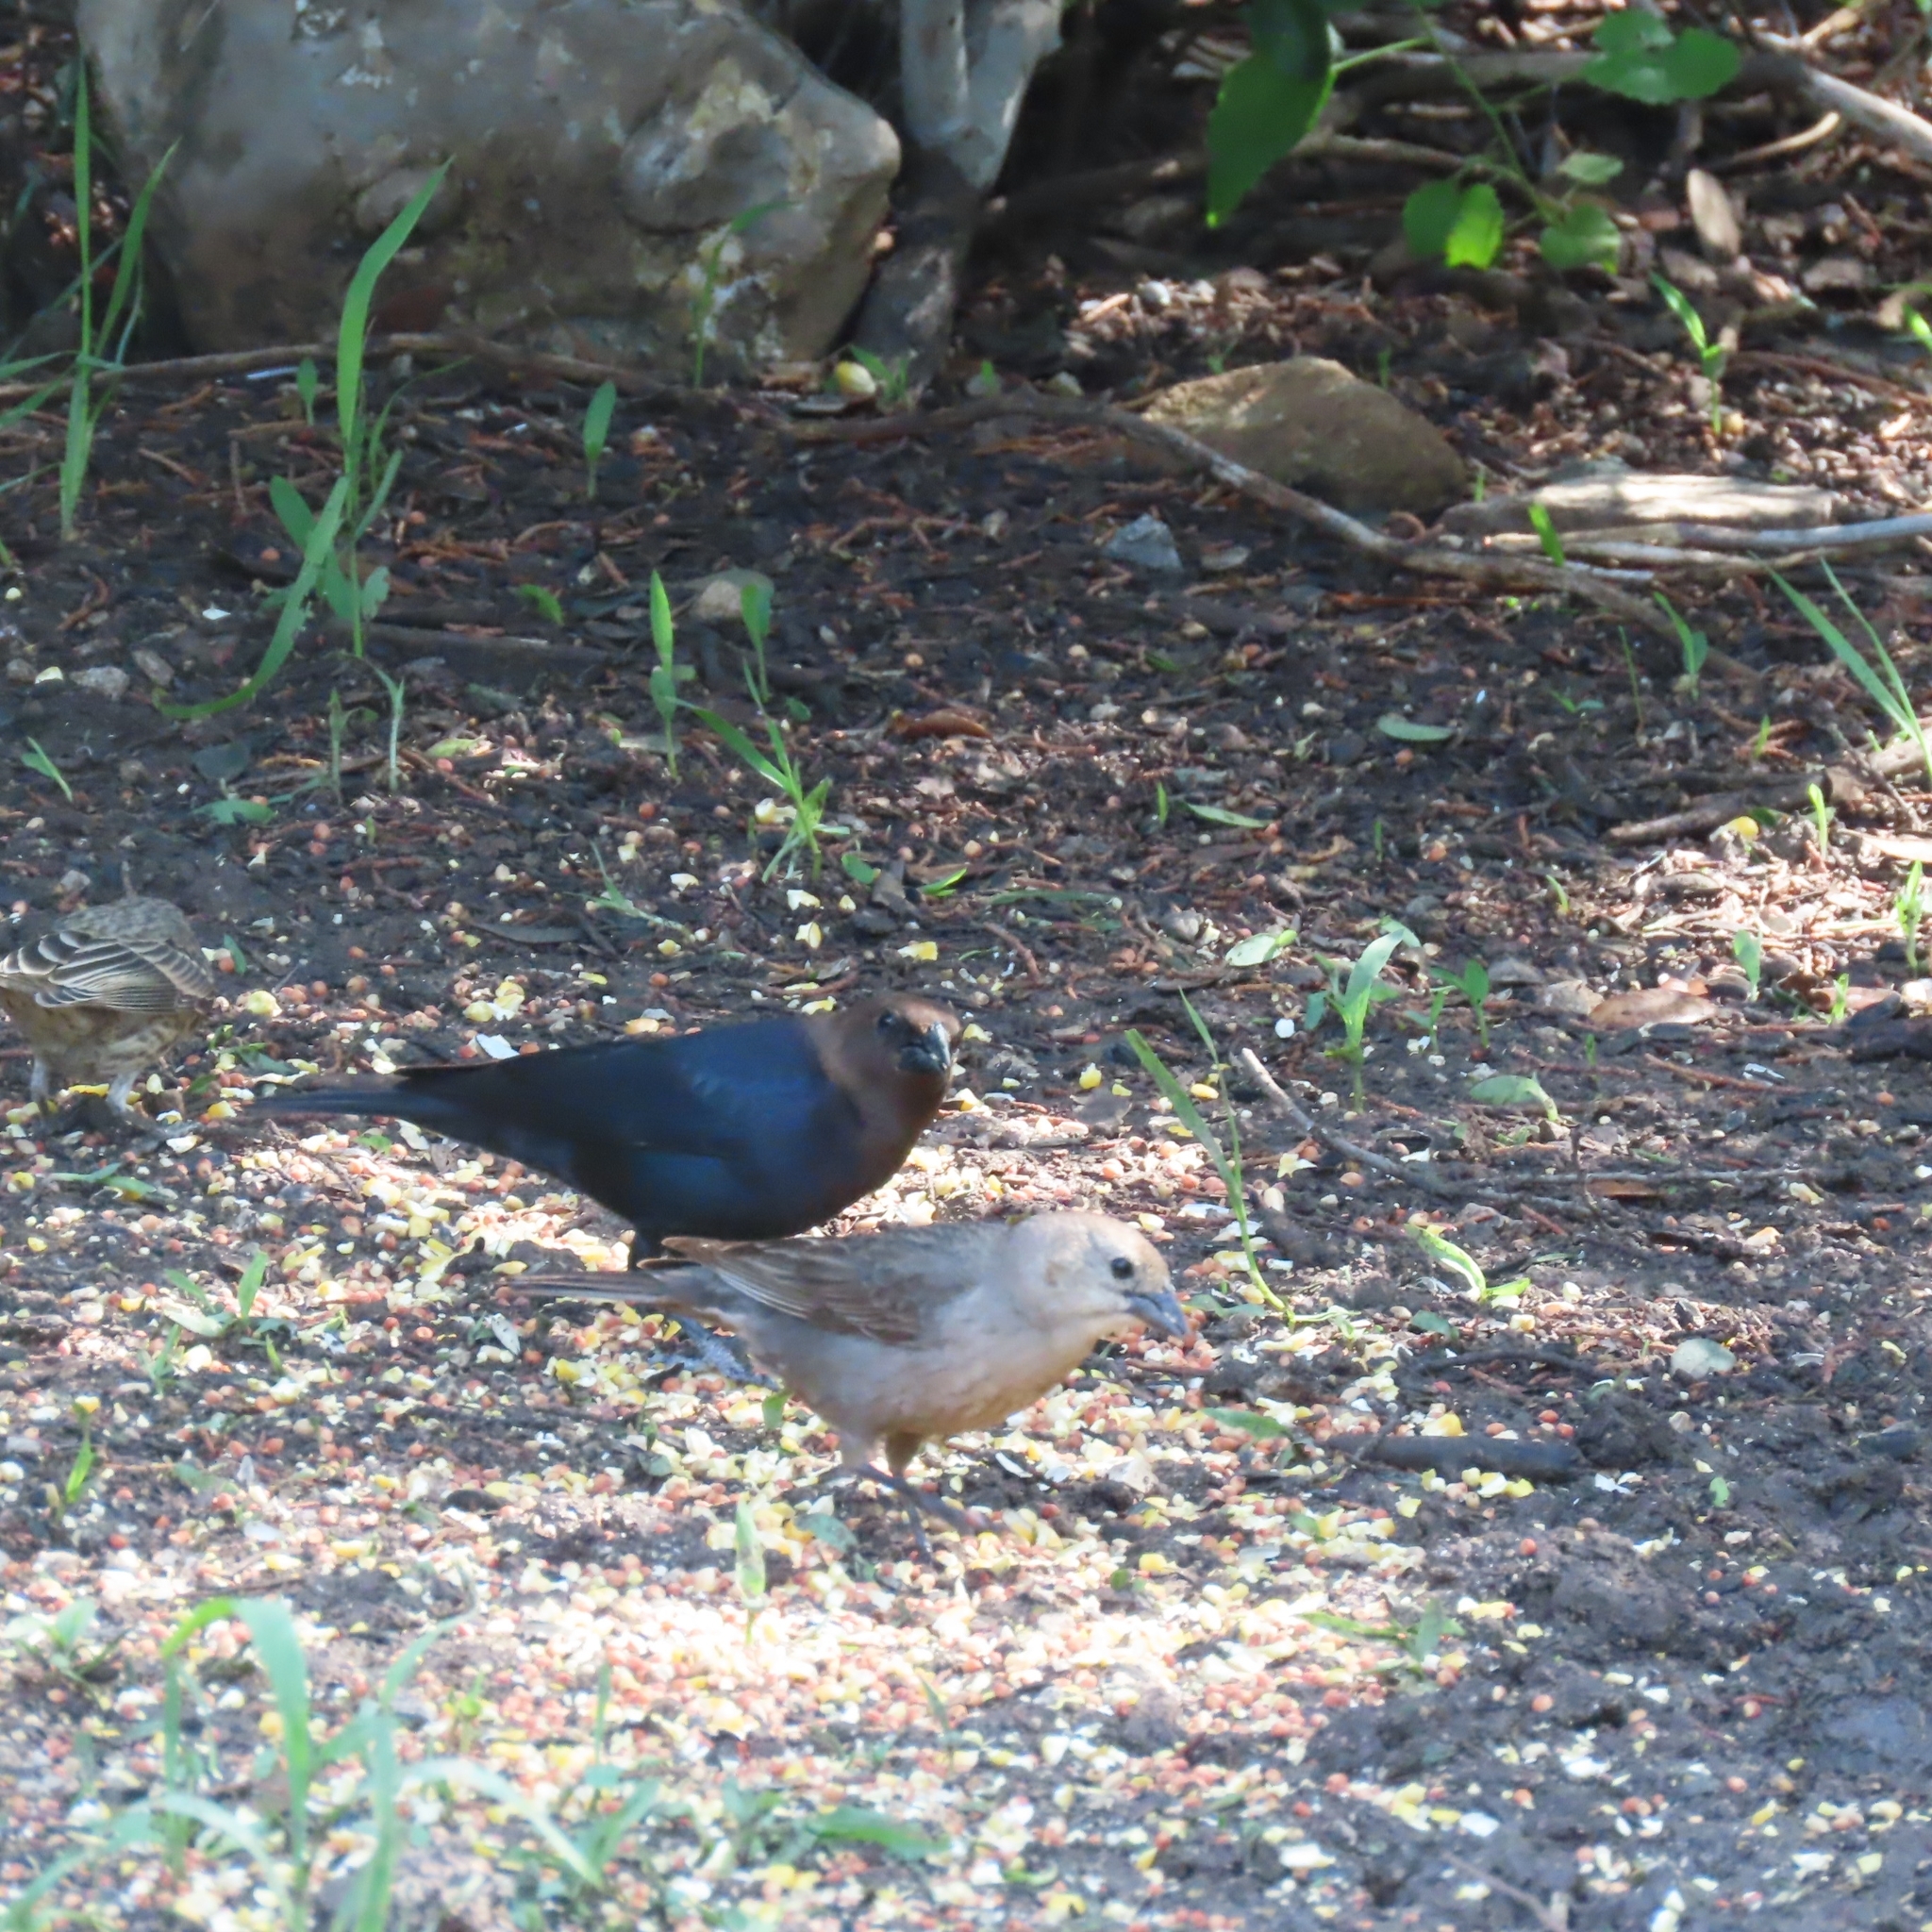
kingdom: Animalia
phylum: Chordata
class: Aves
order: Passeriformes
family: Icteridae
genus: Molothrus
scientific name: Molothrus ater
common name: Brown-headed cowbird
